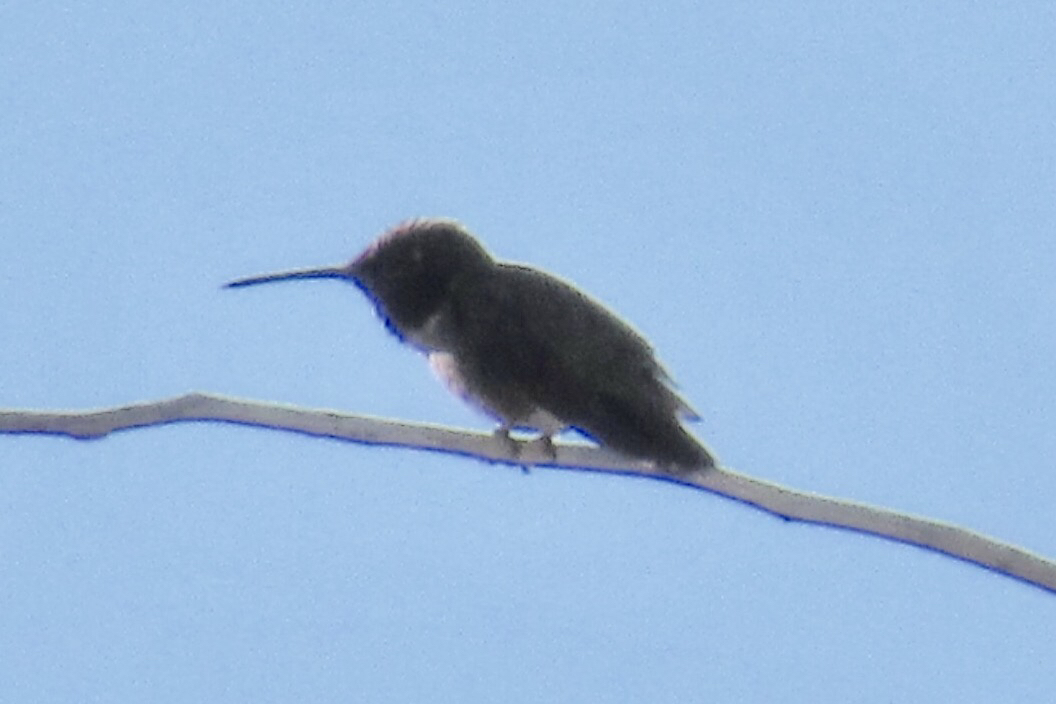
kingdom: Animalia
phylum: Chordata
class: Aves
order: Apodiformes
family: Trochilidae
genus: Archilochus
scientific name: Archilochus alexandri
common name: Black-chinned hummingbird
